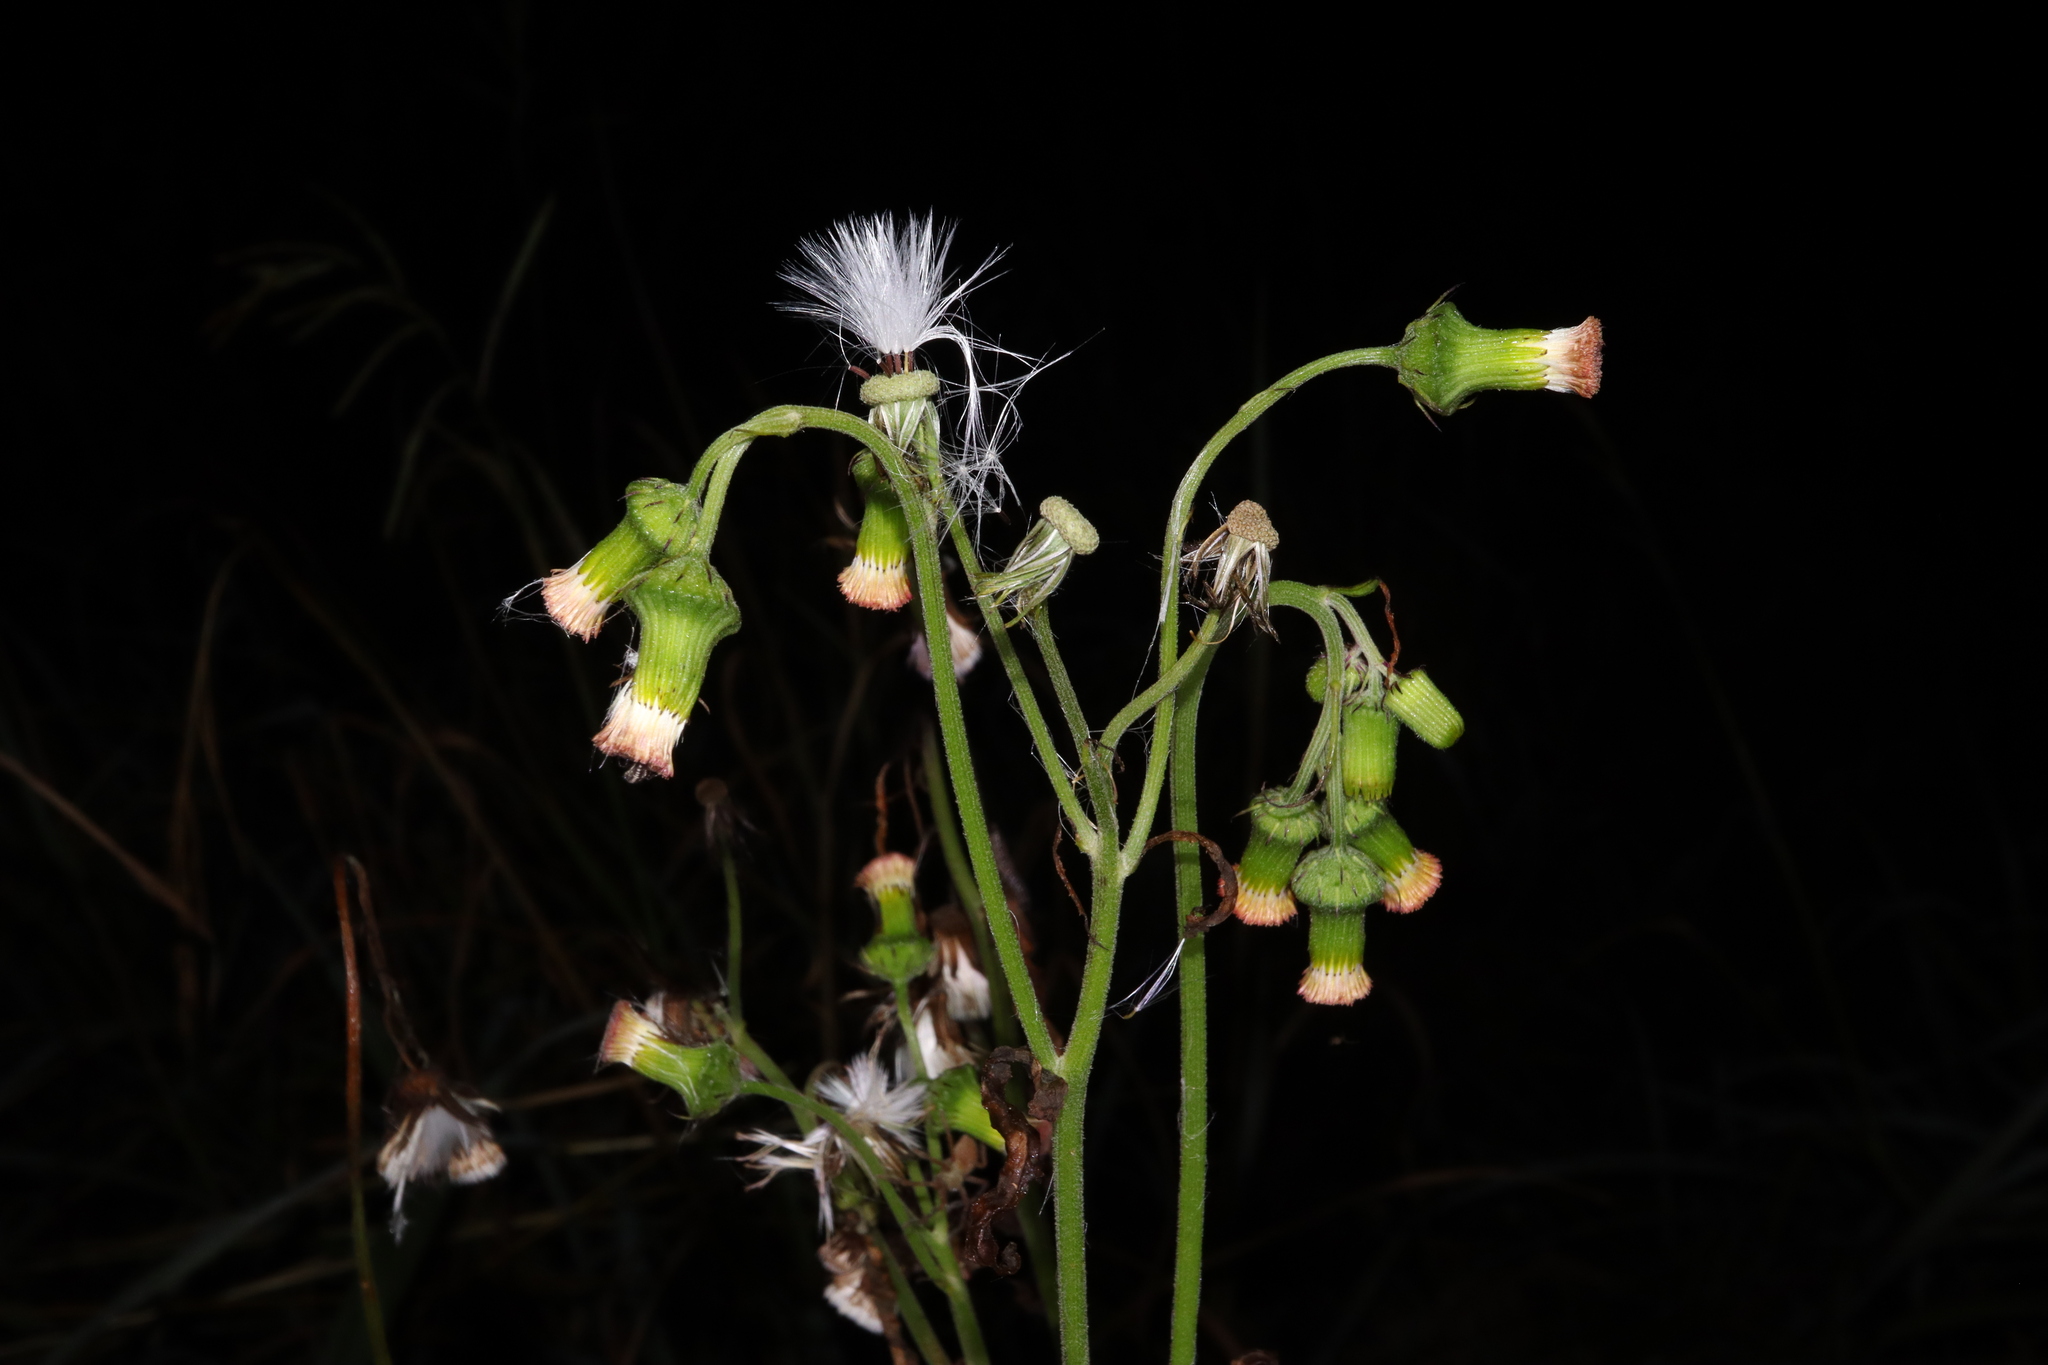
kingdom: Plantae
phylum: Tracheophyta
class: Magnoliopsida
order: Asterales
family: Asteraceae
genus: Crassocephalum
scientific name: Crassocephalum crepidioides
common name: Redflower ragleaf
